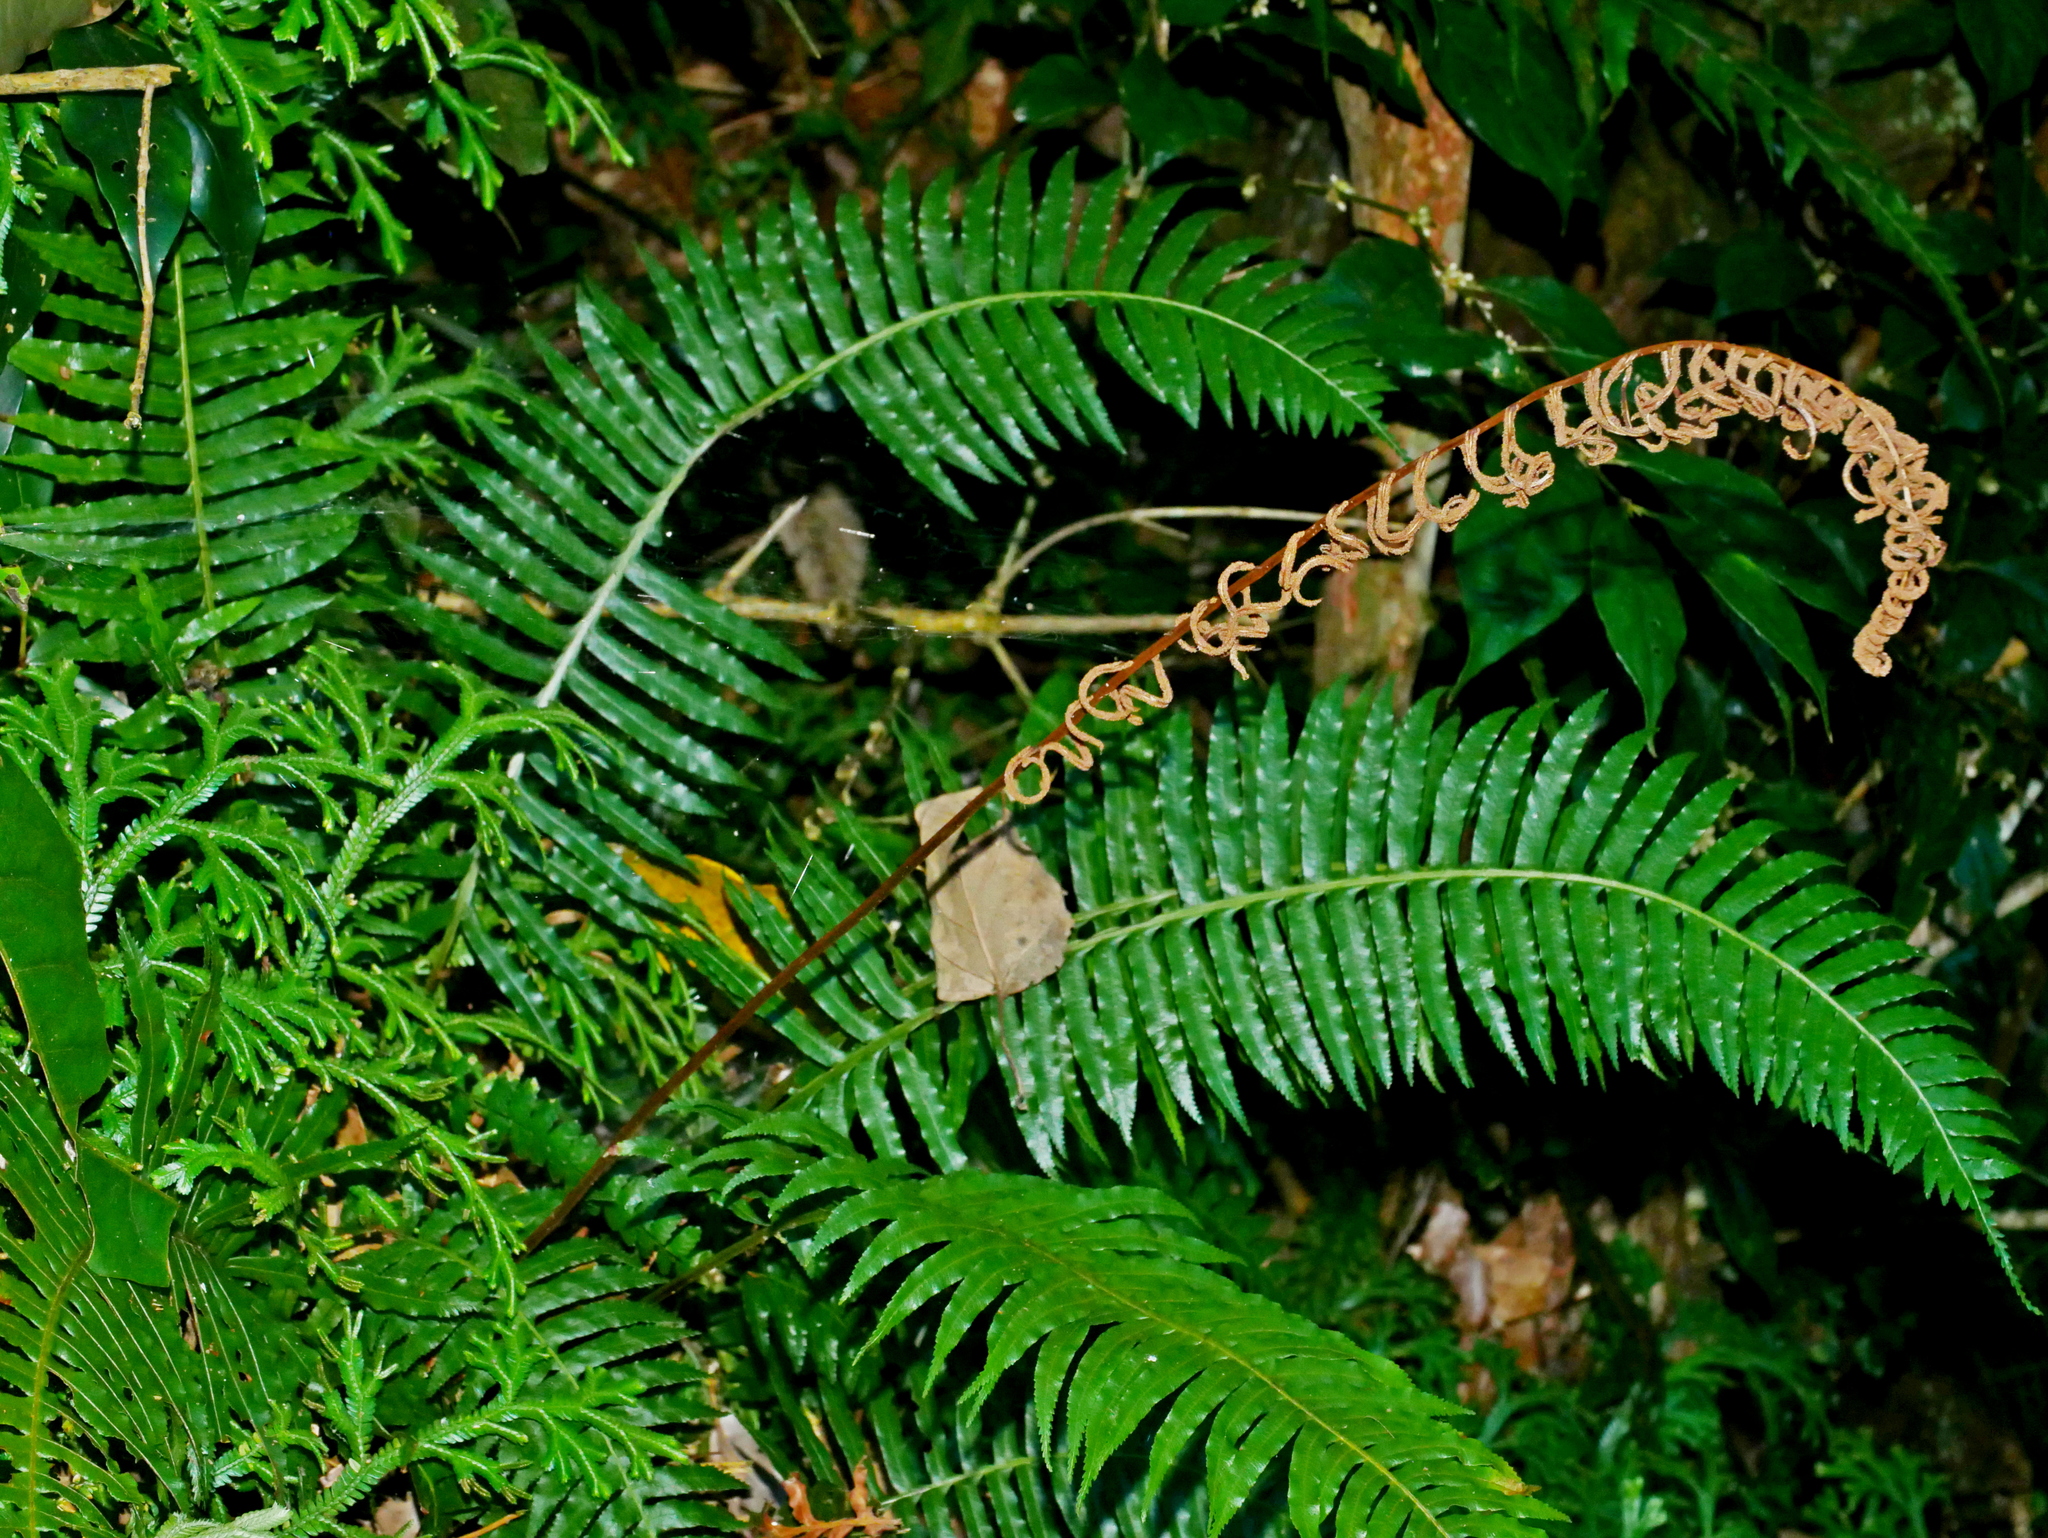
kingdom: Plantae
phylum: Tracheophyta
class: Polypodiopsida
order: Cyatheales
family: Plagiogyriaceae
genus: Plagiogyria
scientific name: Plagiogyria falcata
